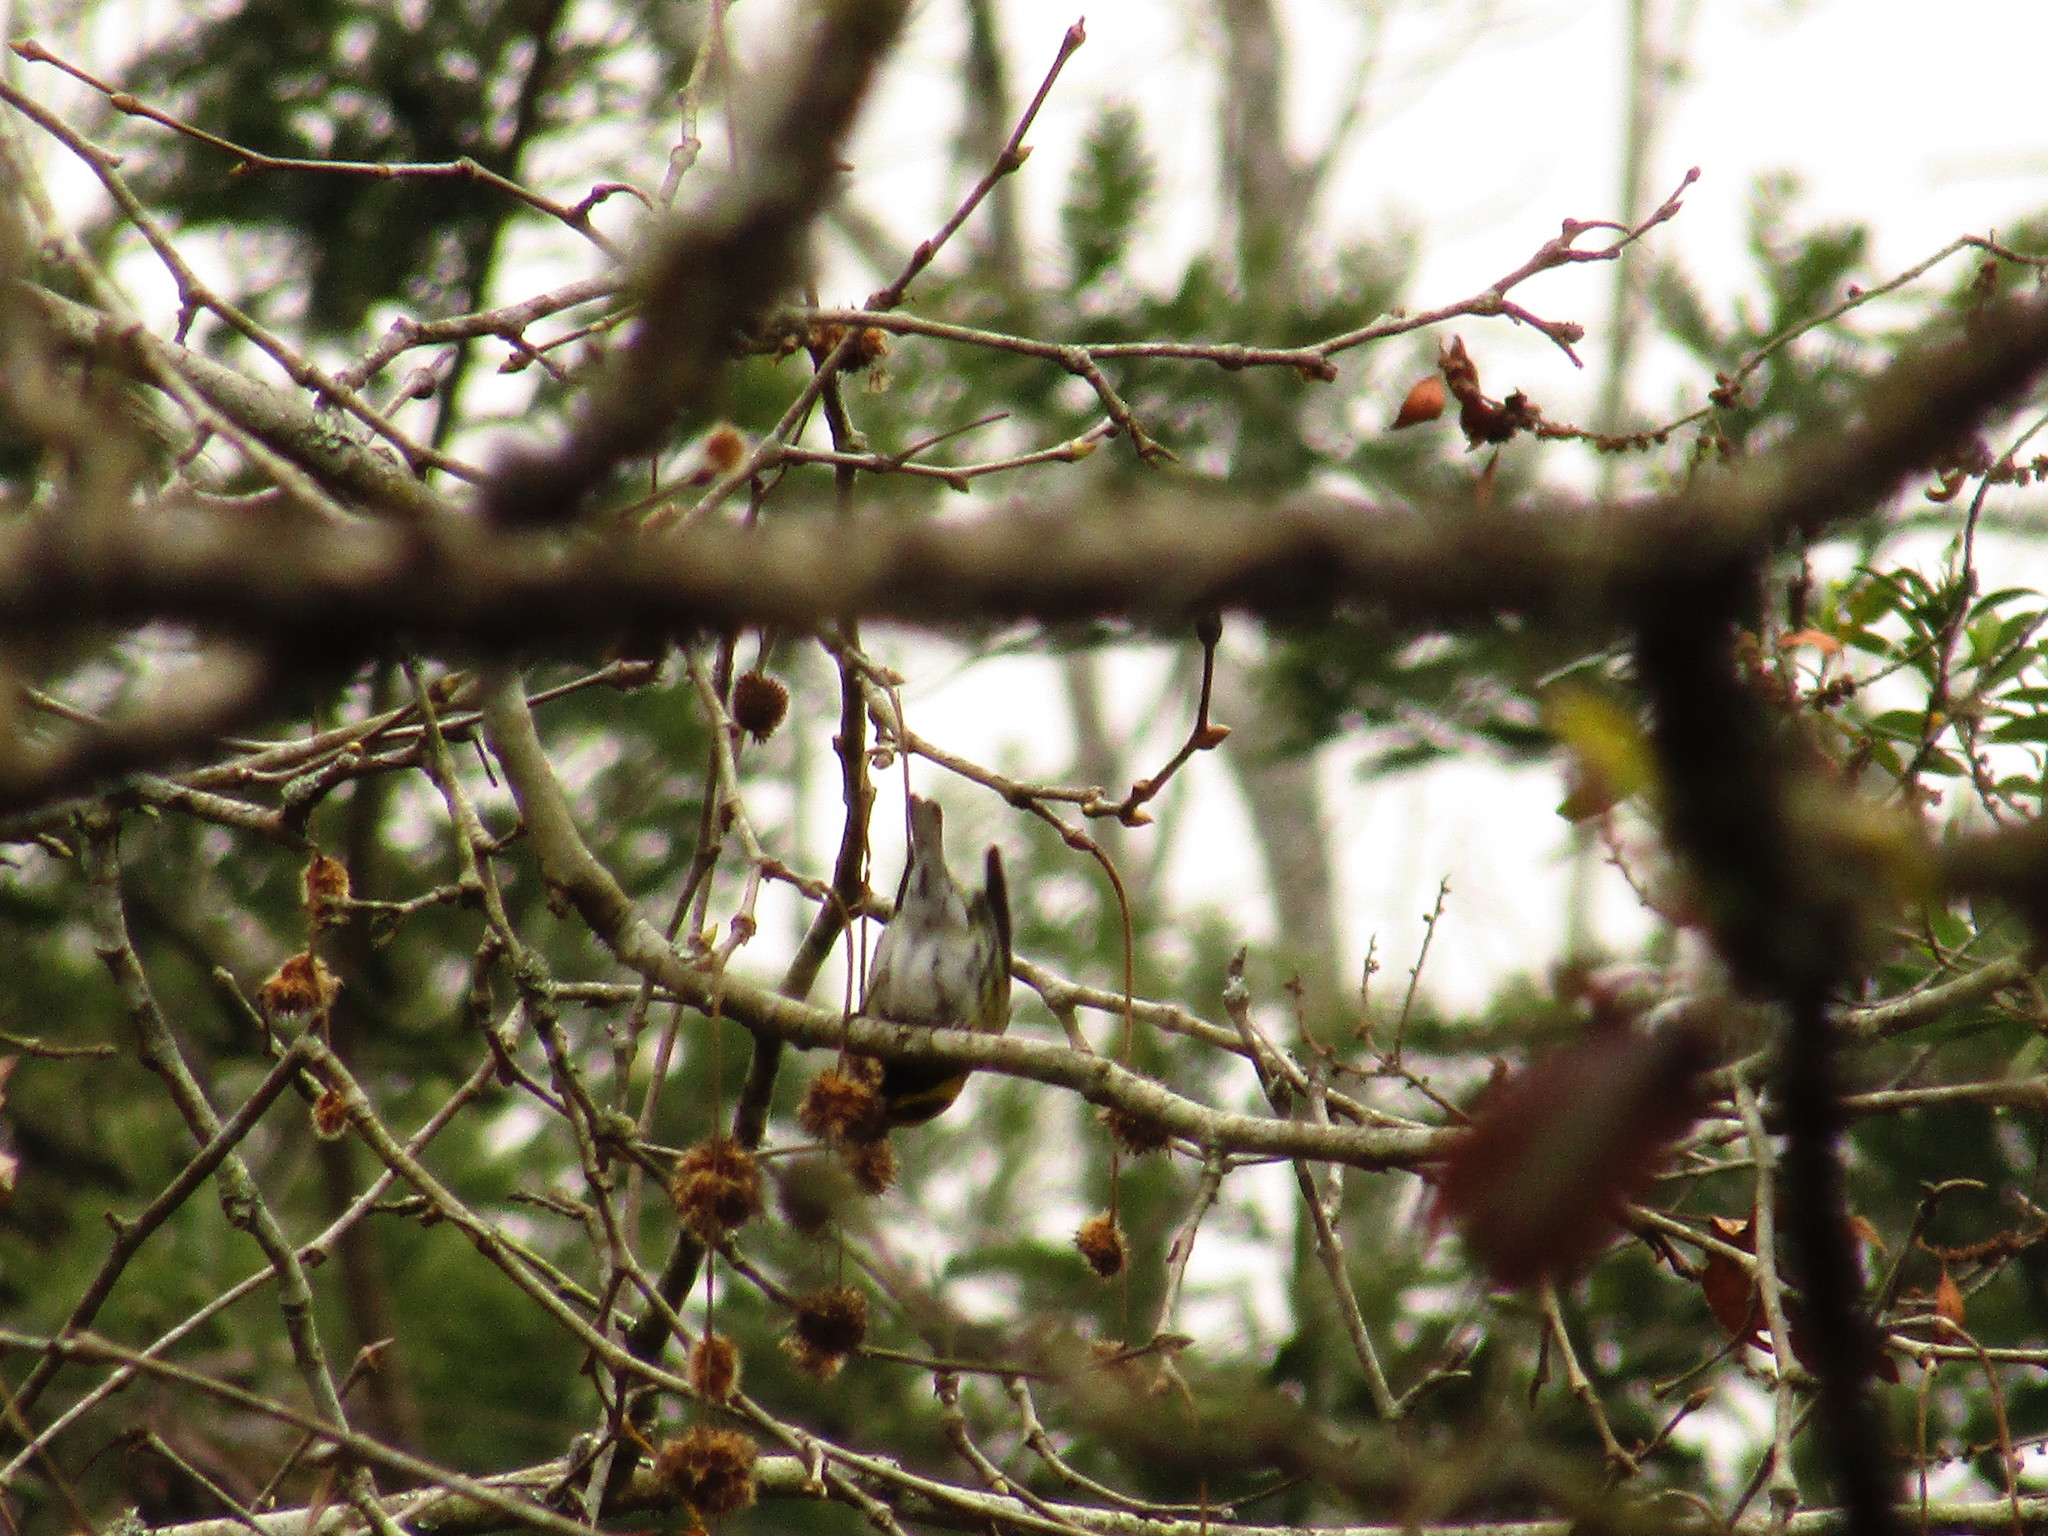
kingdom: Animalia
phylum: Chordata
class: Aves
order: Passeriformes
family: Parulidae
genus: Setophaga
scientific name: Setophaga townsendi
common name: Townsend's warbler
